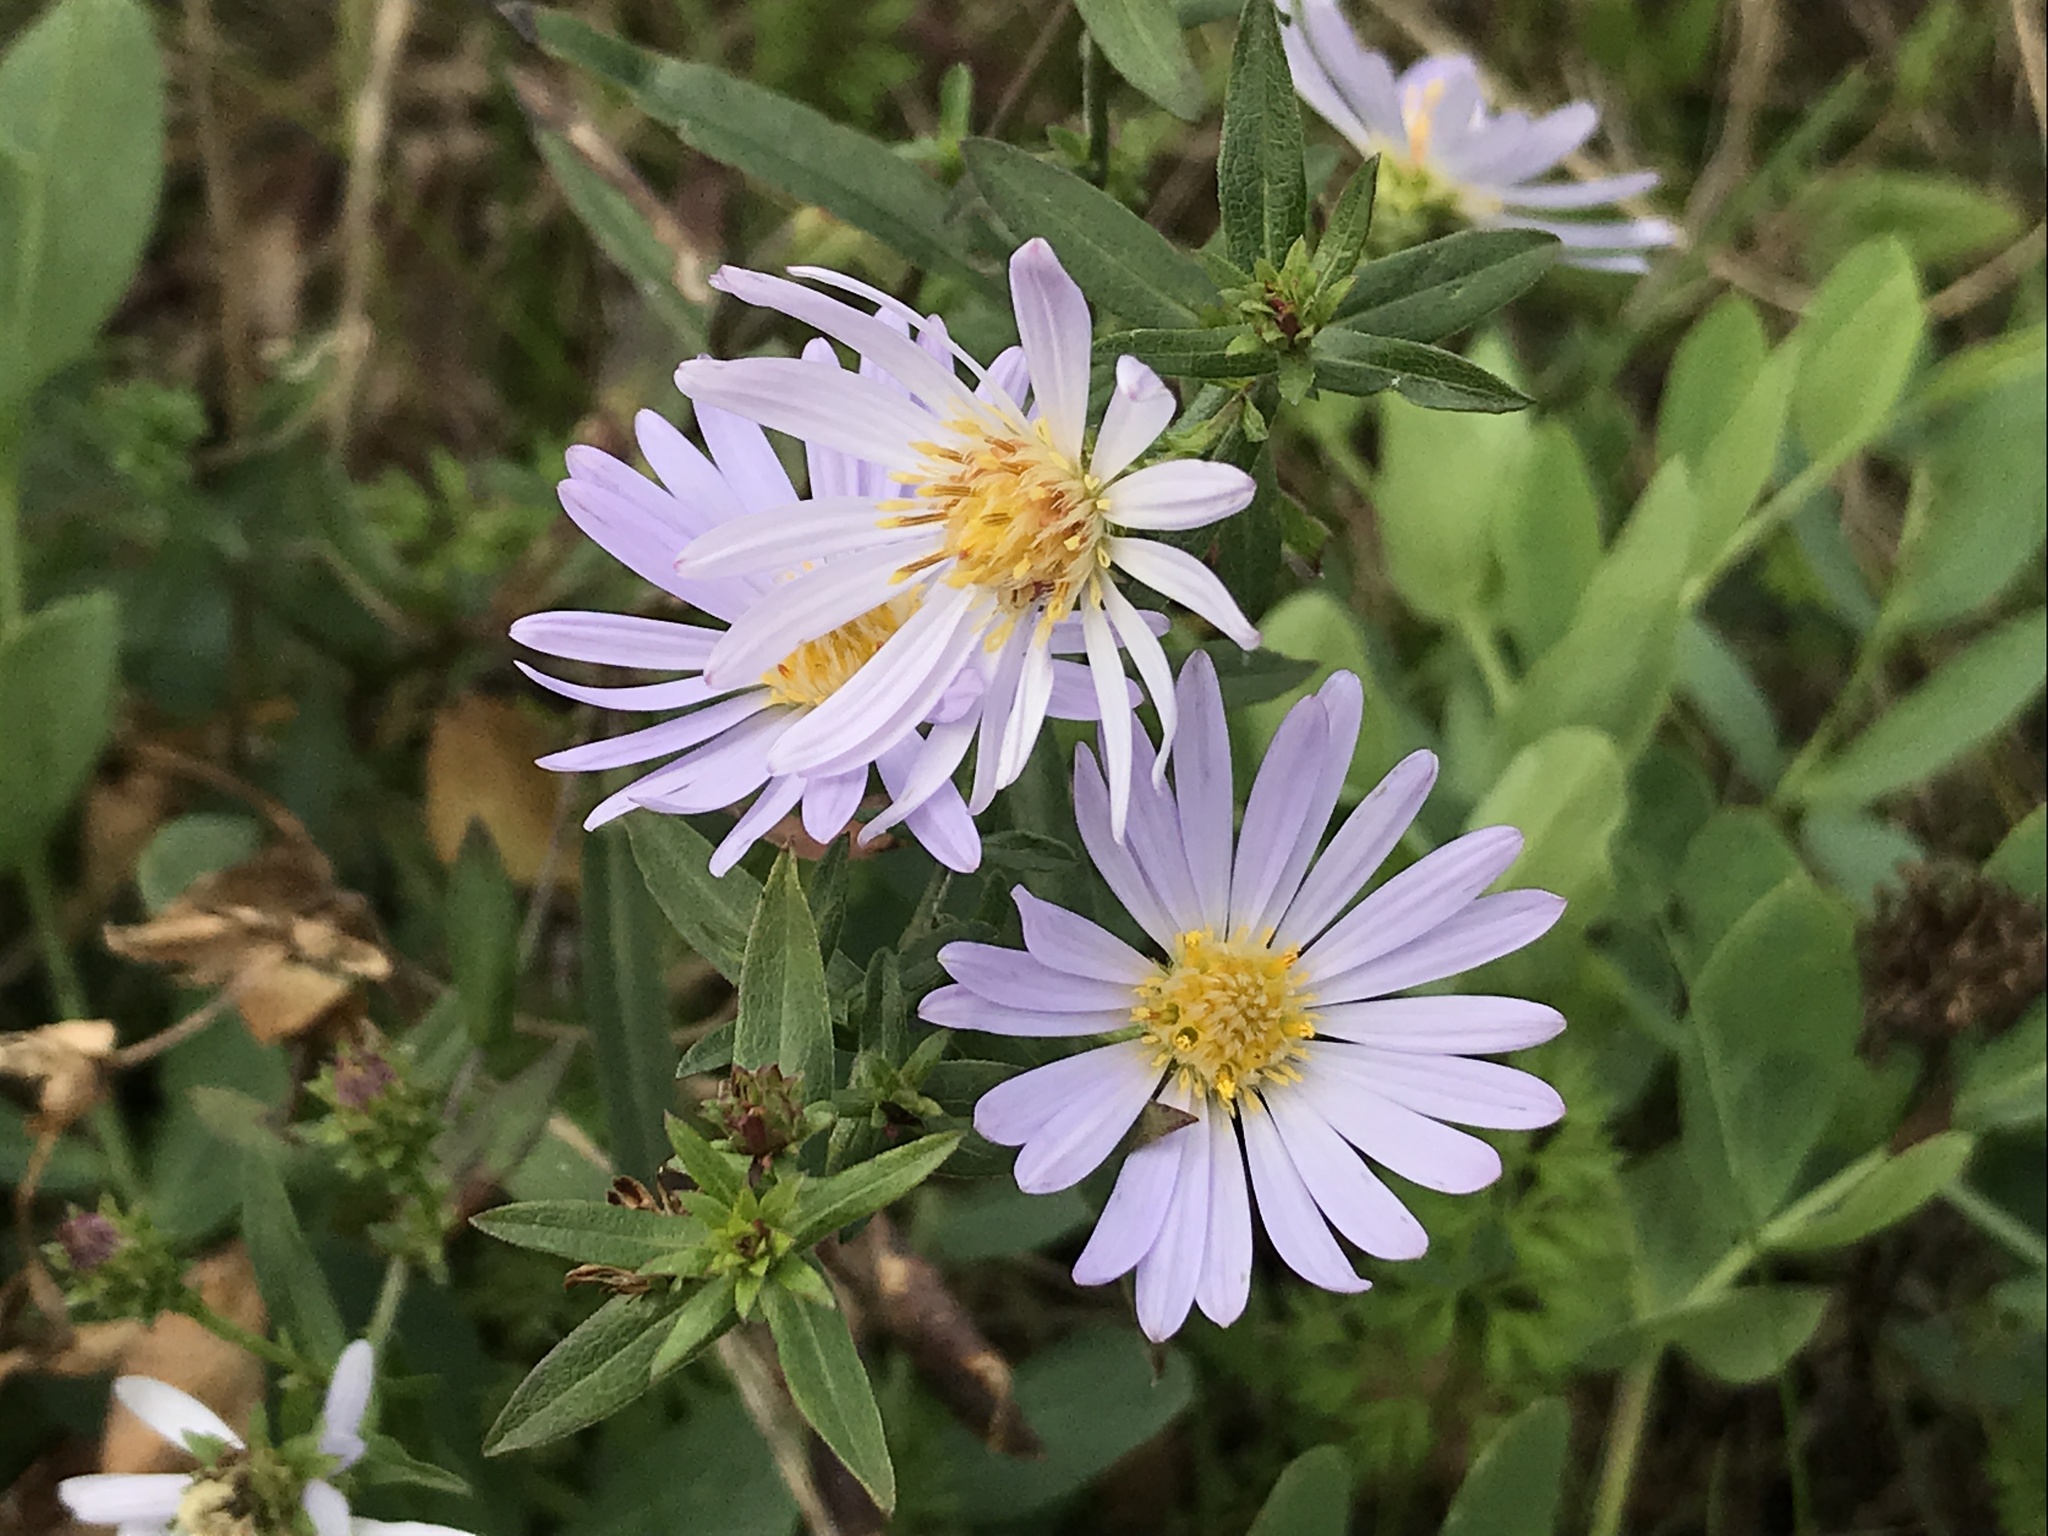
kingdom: Plantae
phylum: Tracheophyta
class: Magnoliopsida
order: Asterales
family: Asteraceae
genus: Symphyotrichum
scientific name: Symphyotrichum chilense
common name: Pacific aster
